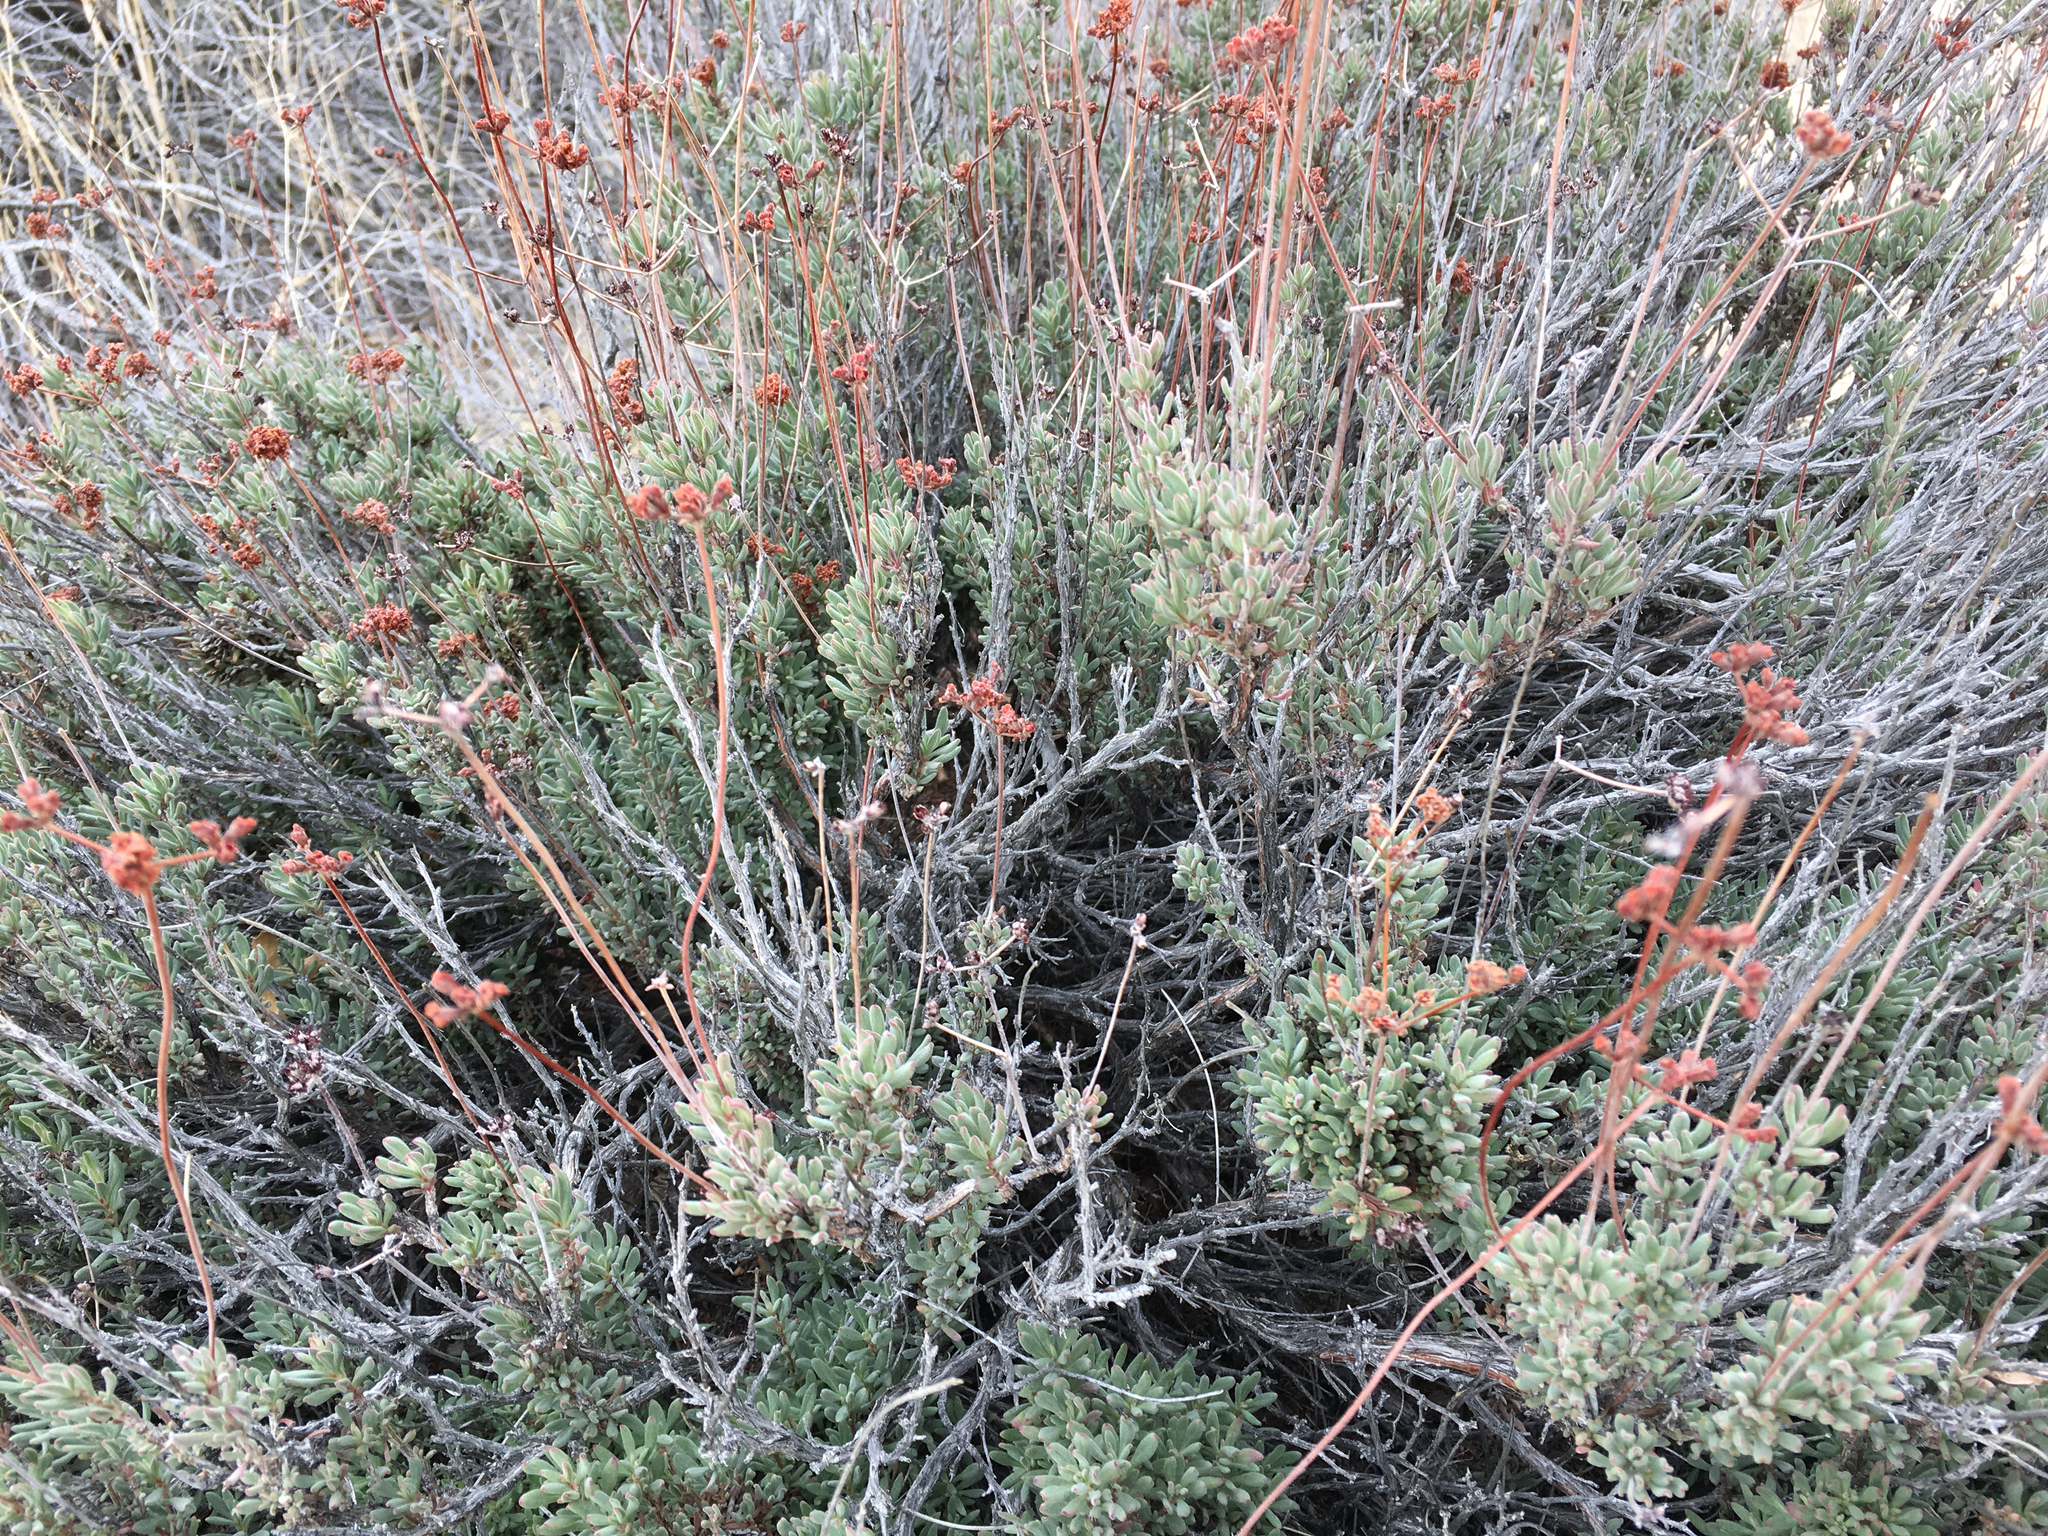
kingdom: Plantae
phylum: Tracheophyta
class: Magnoliopsida
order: Caryophyllales
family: Polygonaceae
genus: Eriogonum
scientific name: Eriogonum fasciculatum
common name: California wild buckwheat
